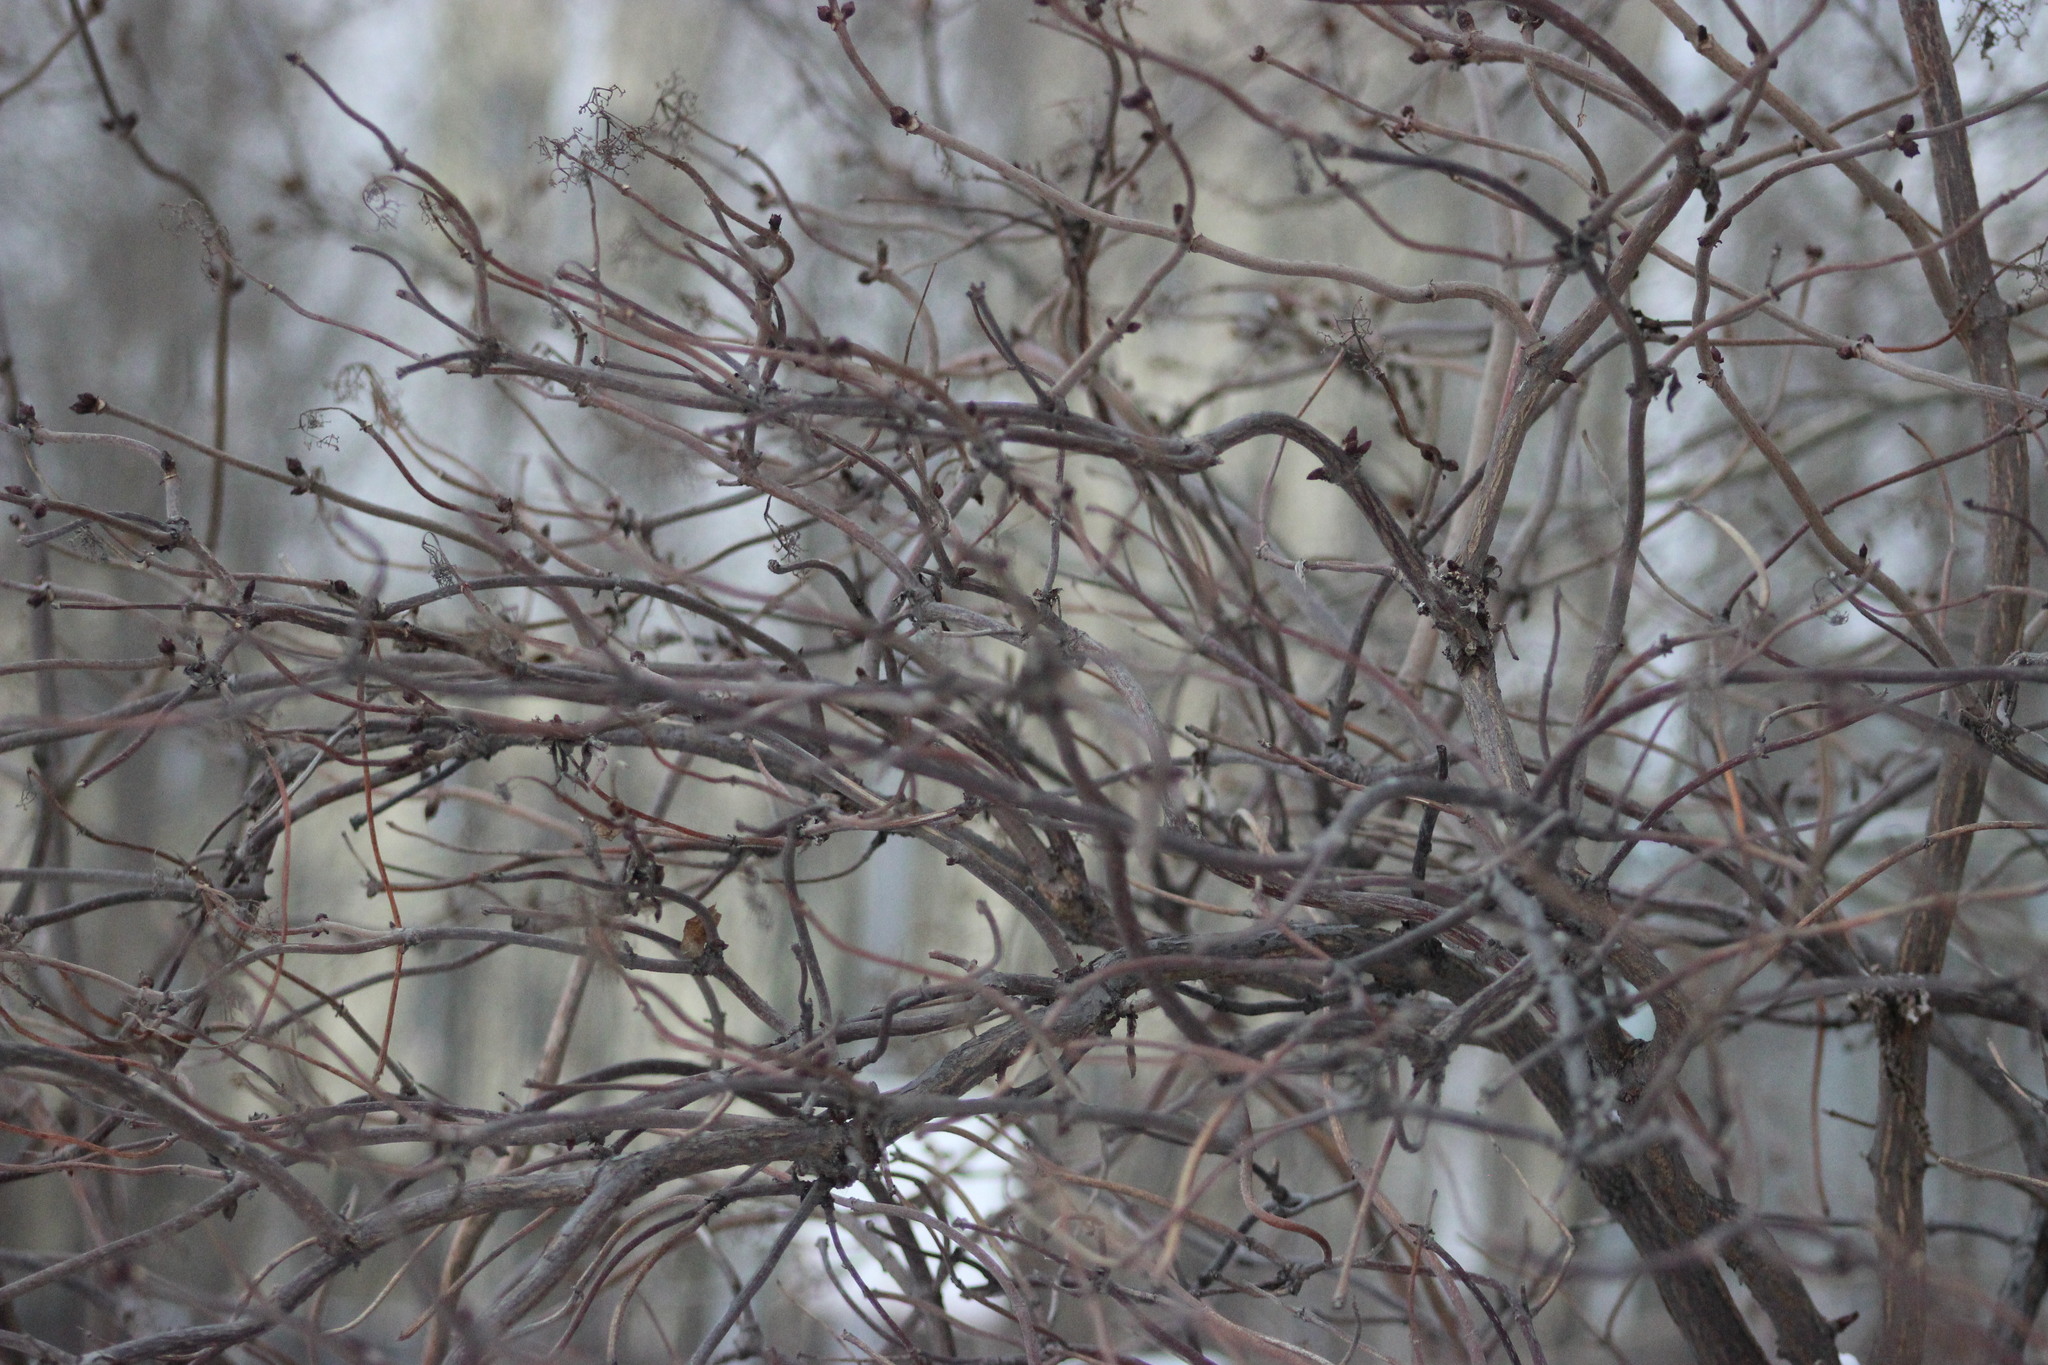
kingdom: Plantae
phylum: Tracheophyta
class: Magnoliopsida
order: Dipsacales
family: Viburnaceae
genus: Sambucus
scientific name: Sambucus sibirica
